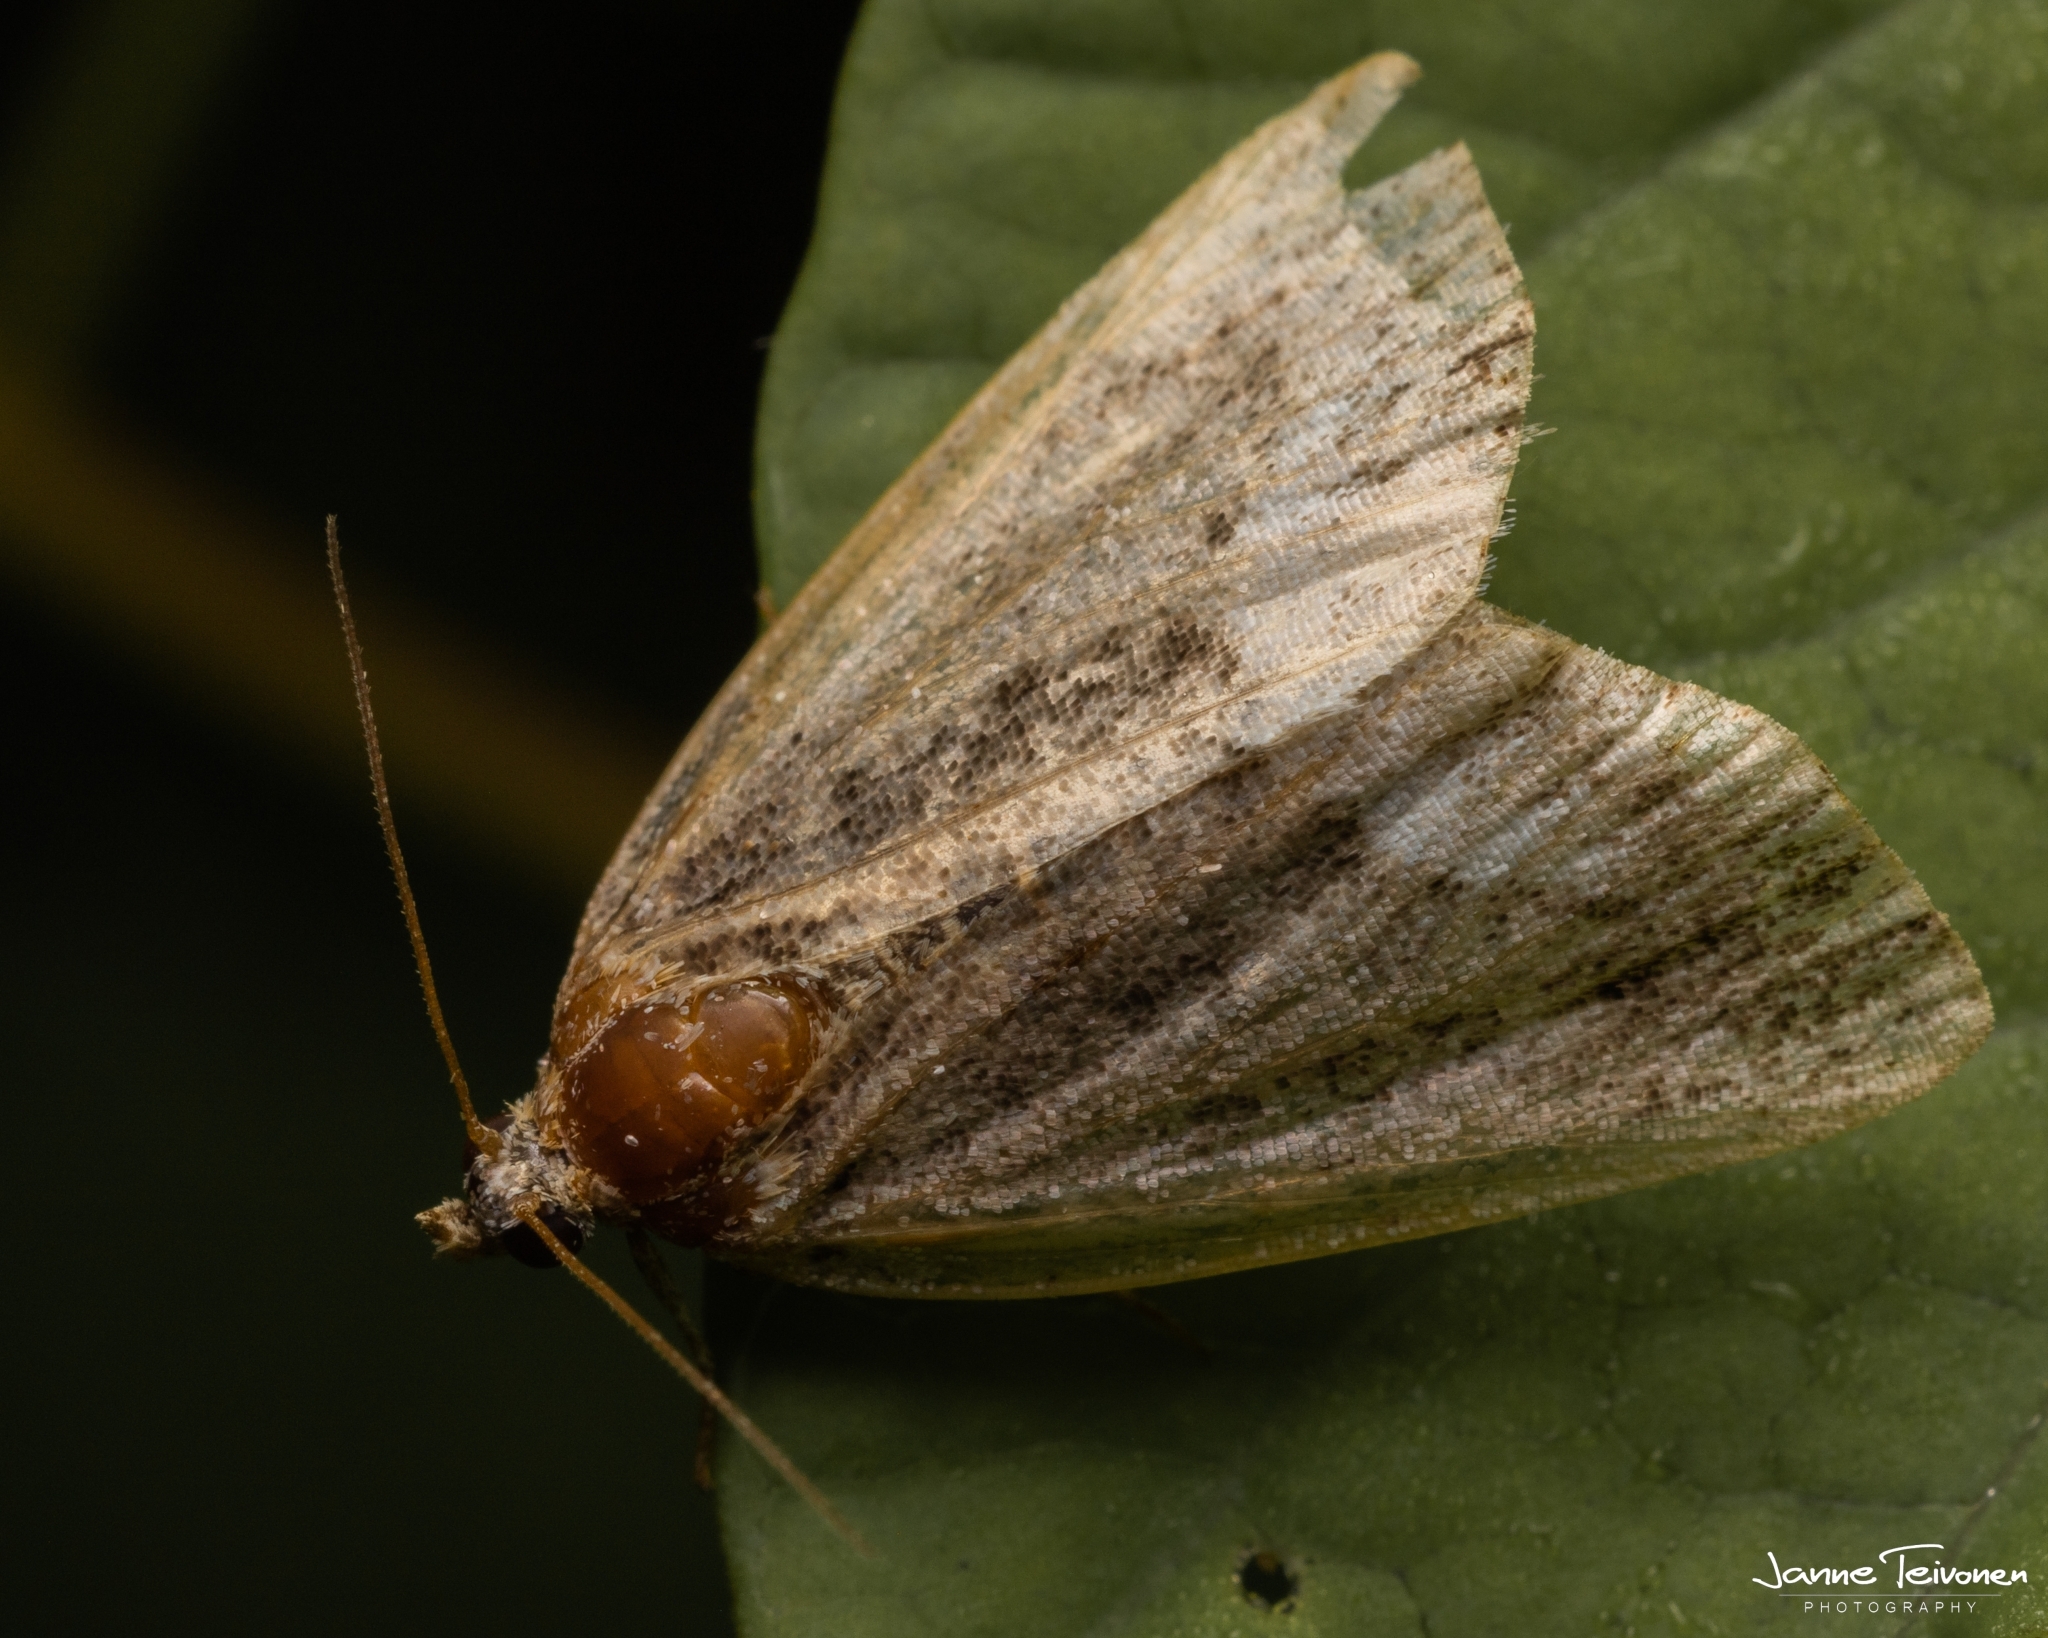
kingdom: Animalia
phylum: Arthropoda
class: Insecta
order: Lepidoptera
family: Noctuidae
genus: Deltote
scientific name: Deltote pygarga
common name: Marbled white spot
